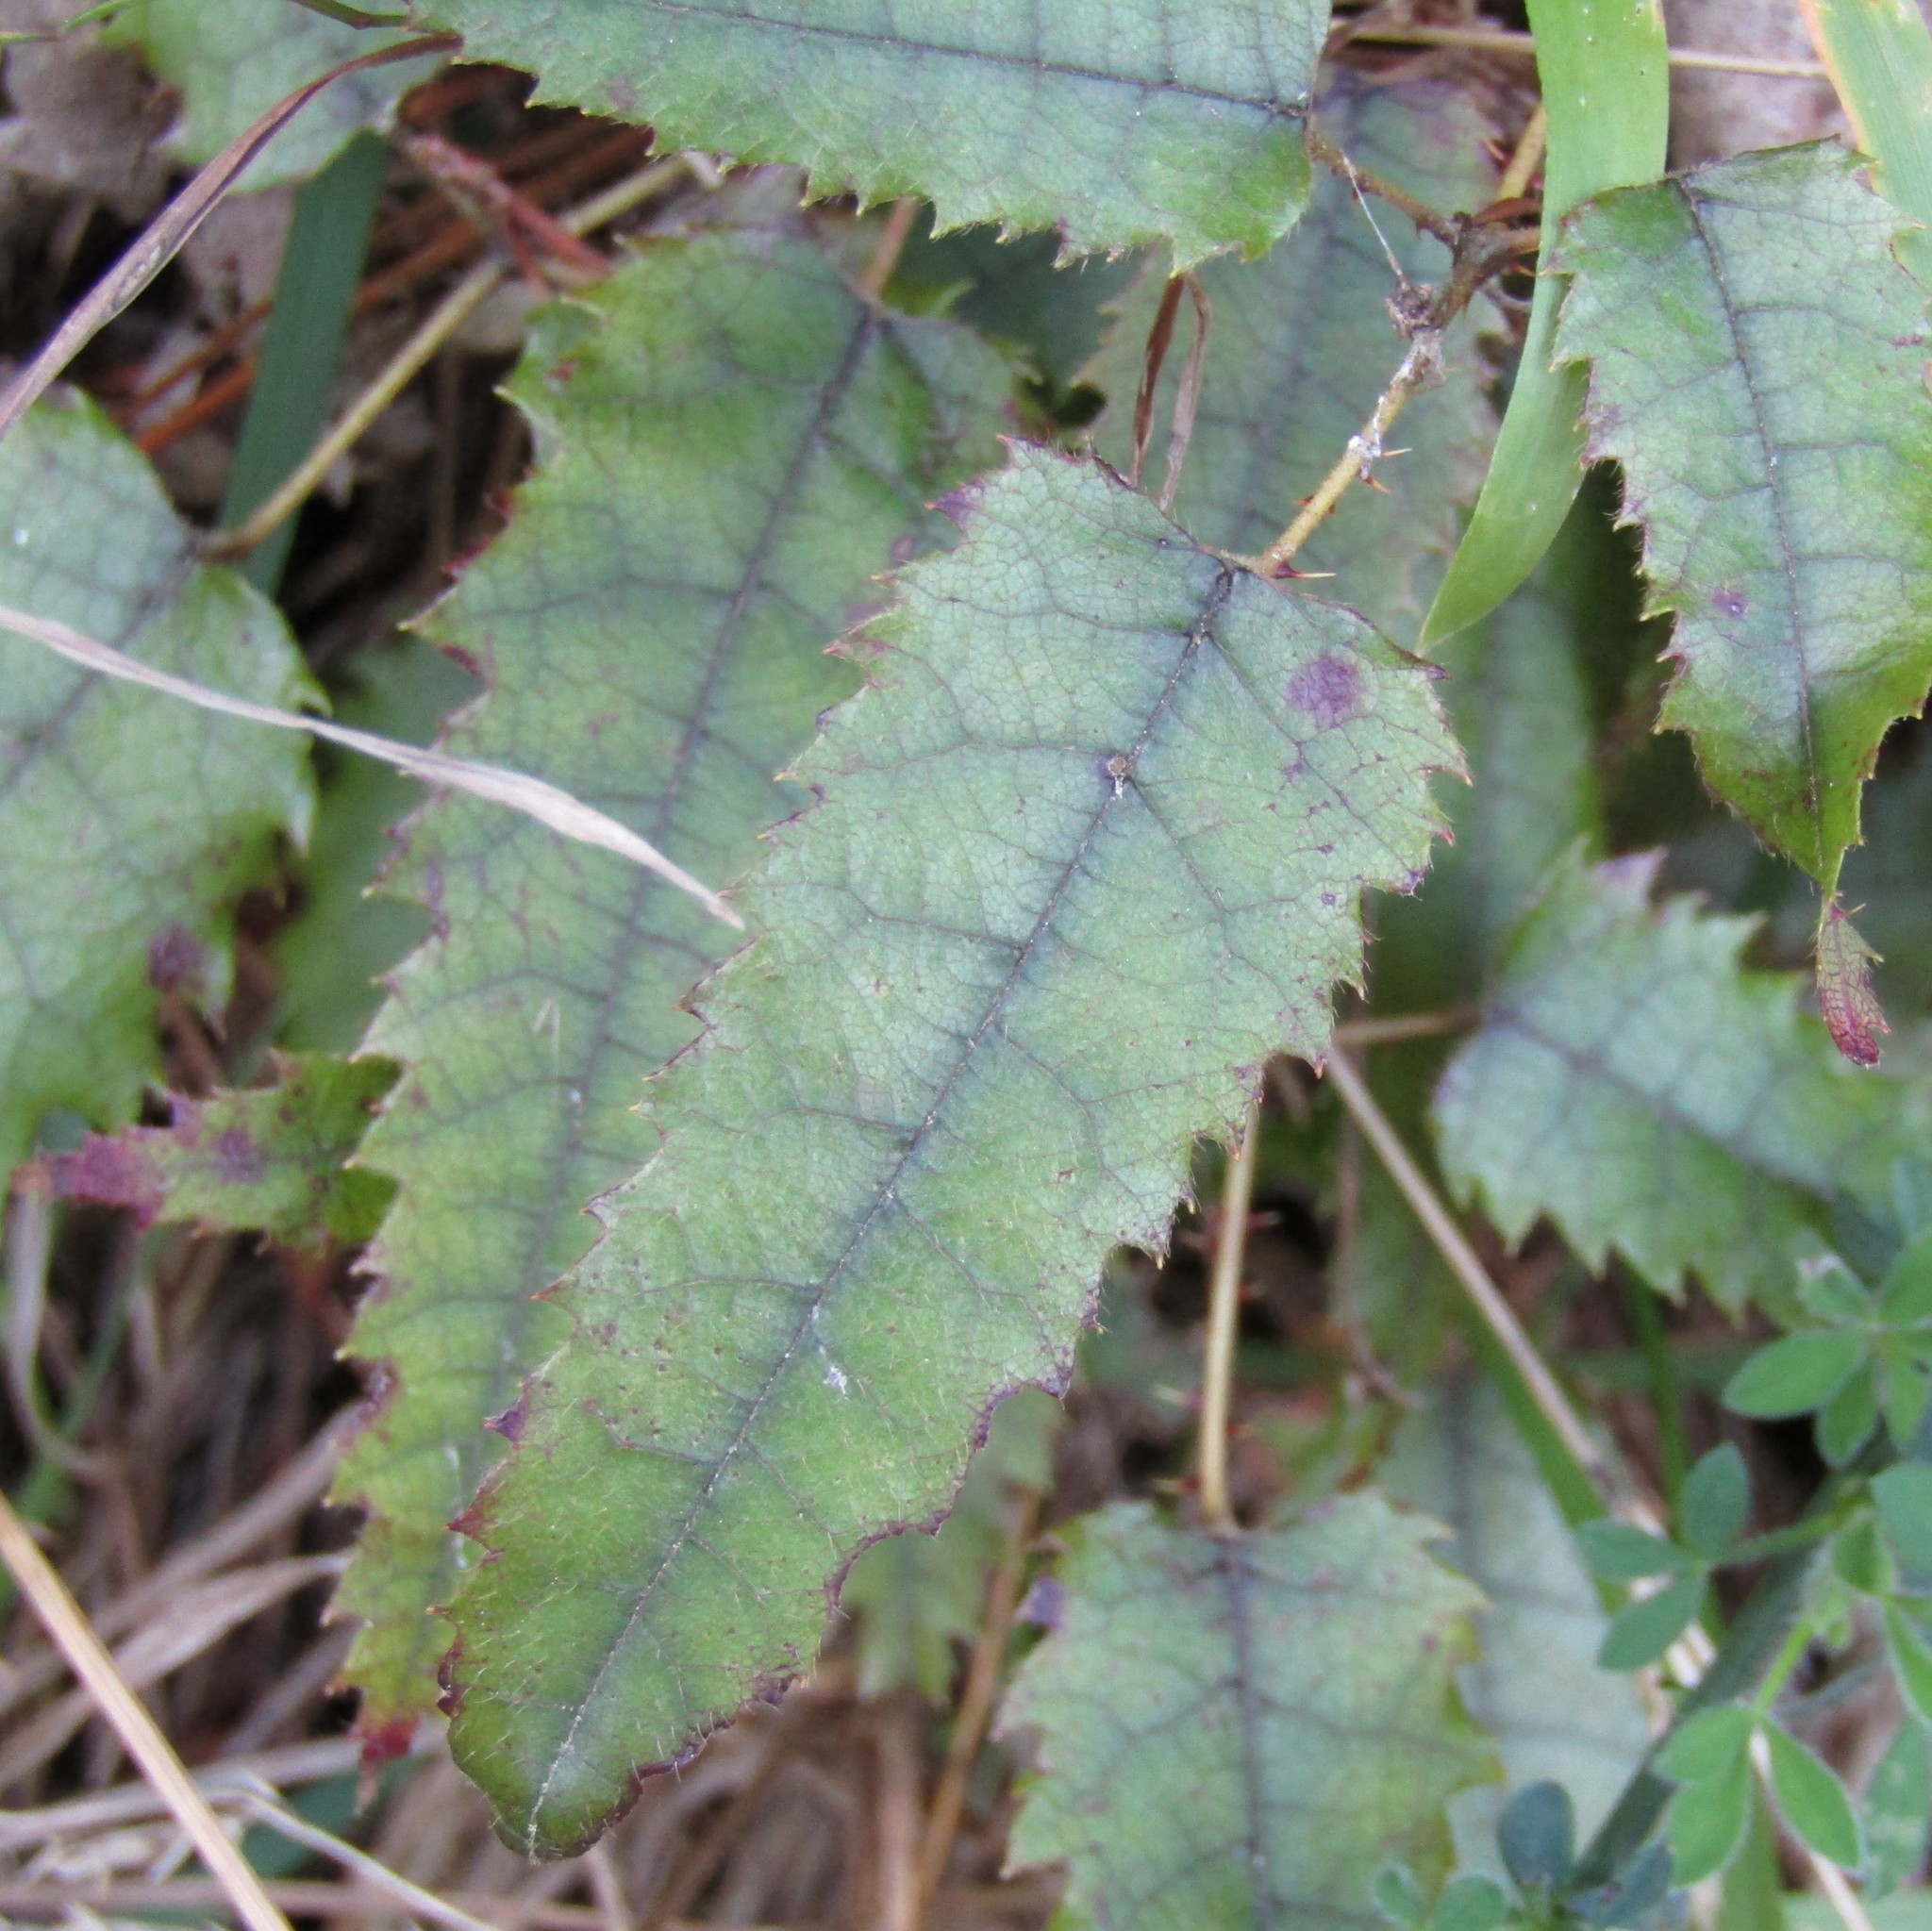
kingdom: Plantae
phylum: Tracheophyta
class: Magnoliopsida
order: Rosales
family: Rosaceae
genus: Rubus
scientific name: Rubus cissoides
